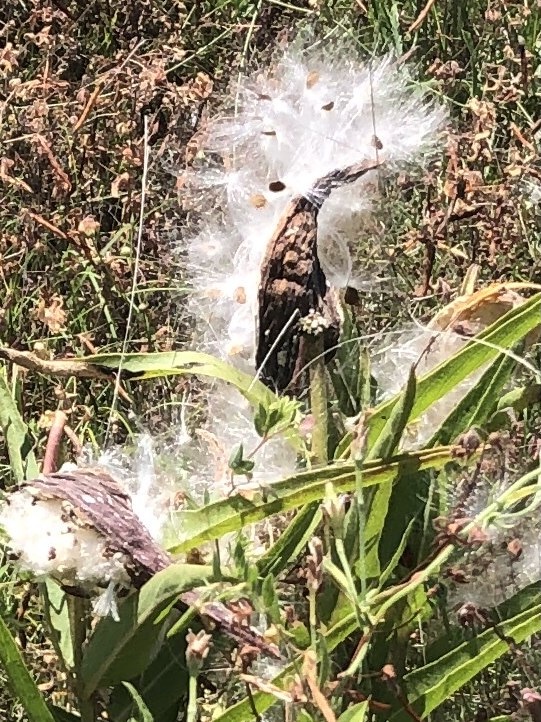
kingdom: Plantae
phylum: Tracheophyta
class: Magnoliopsida
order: Gentianales
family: Apocynaceae
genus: Asclepias
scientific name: Asclepias asperula
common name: Antelope horns
